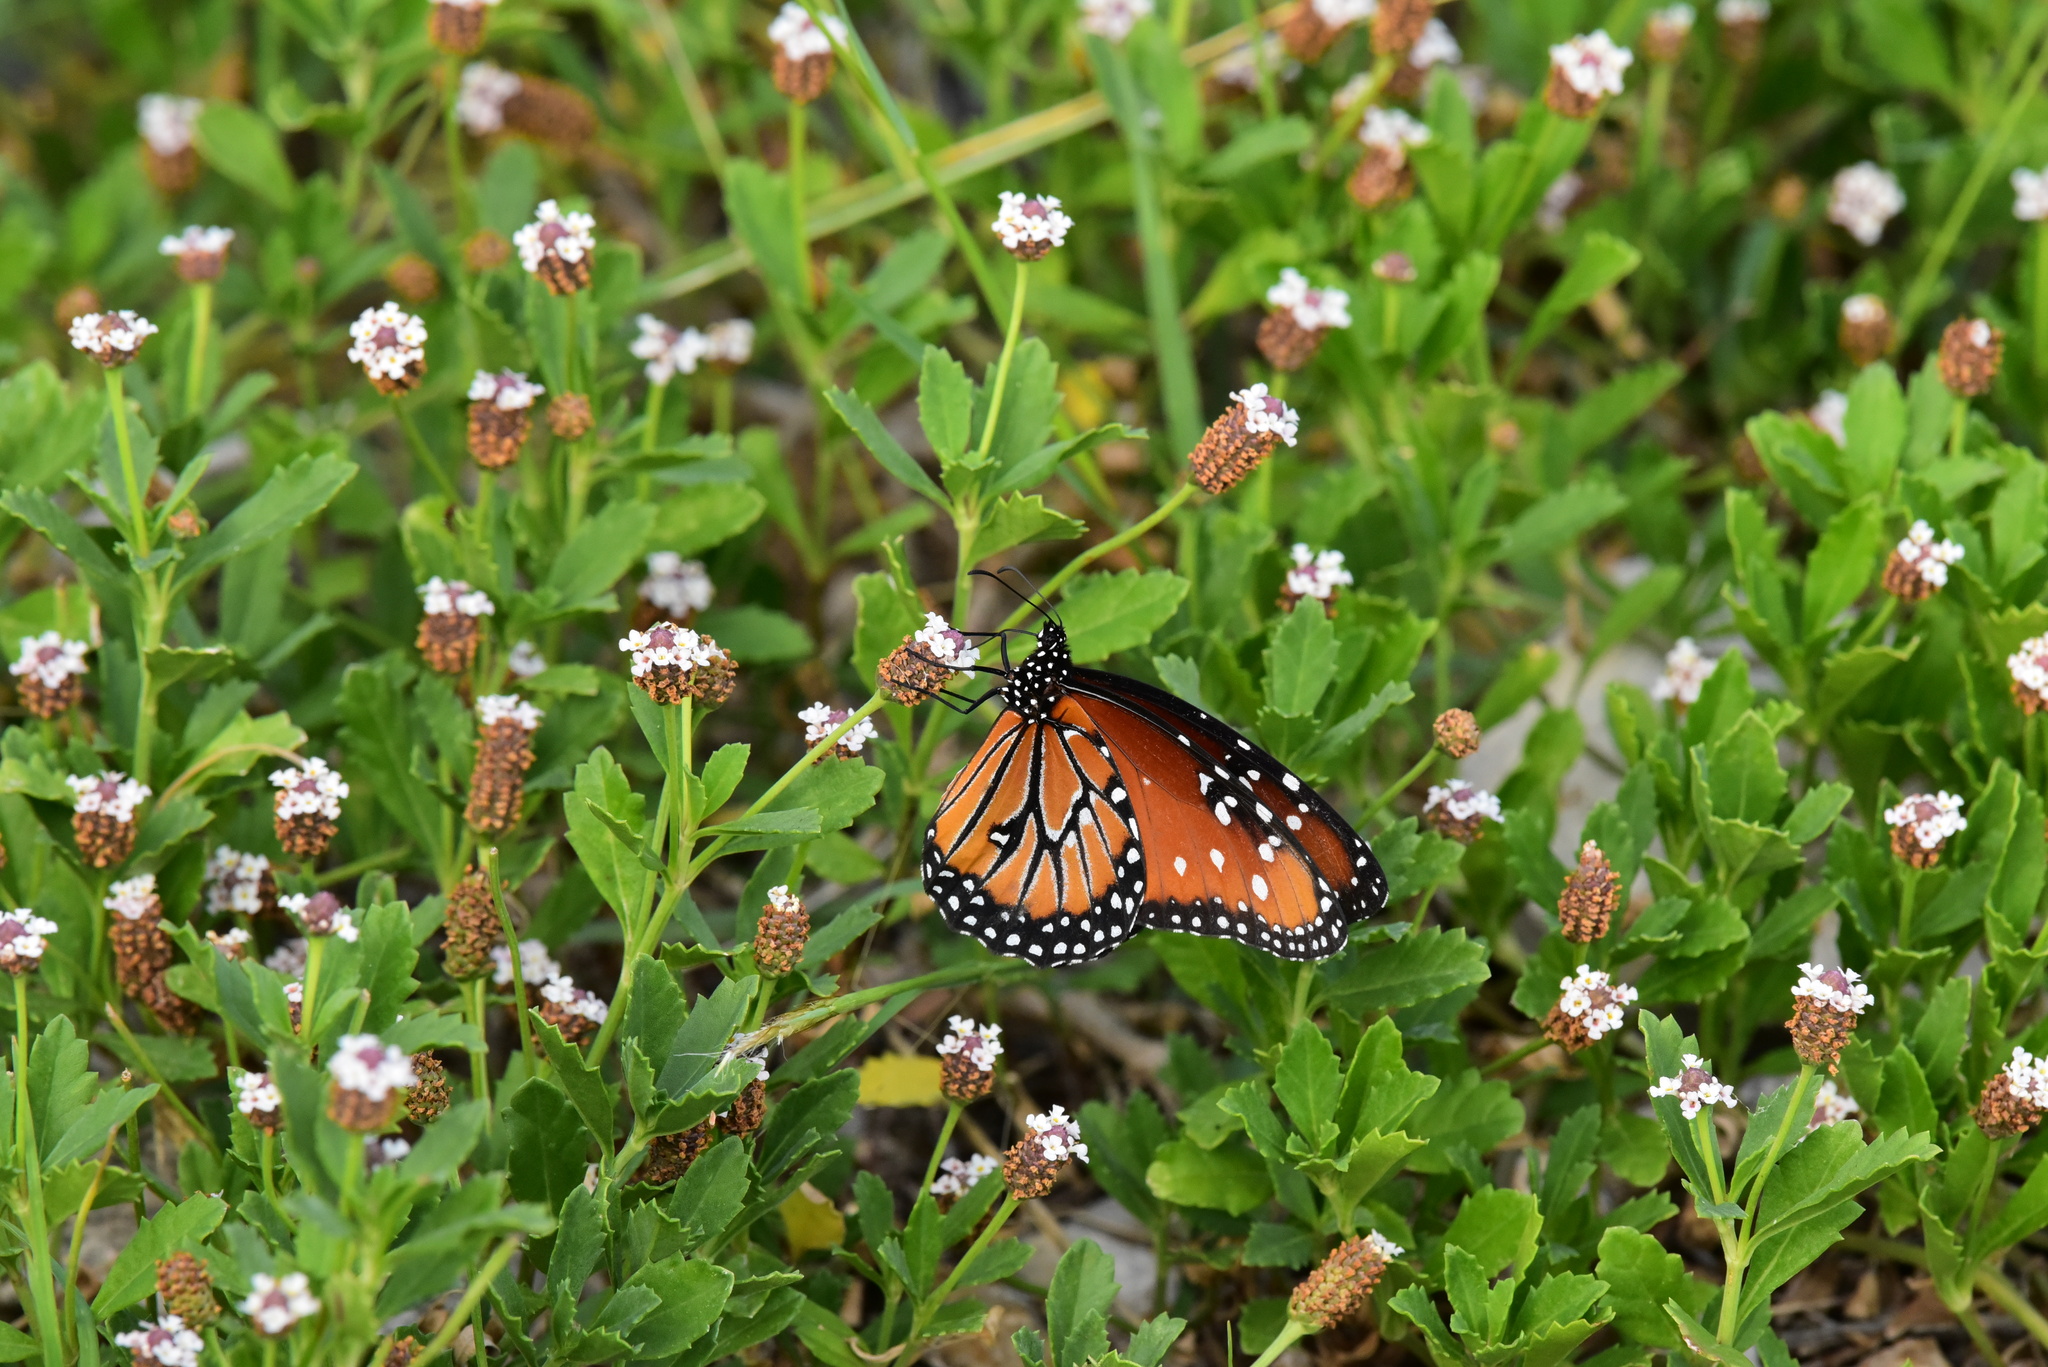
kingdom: Animalia
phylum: Arthropoda
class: Insecta
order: Lepidoptera
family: Nymphalidae
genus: Danaus
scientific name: Danaus gilippus
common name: Queen
